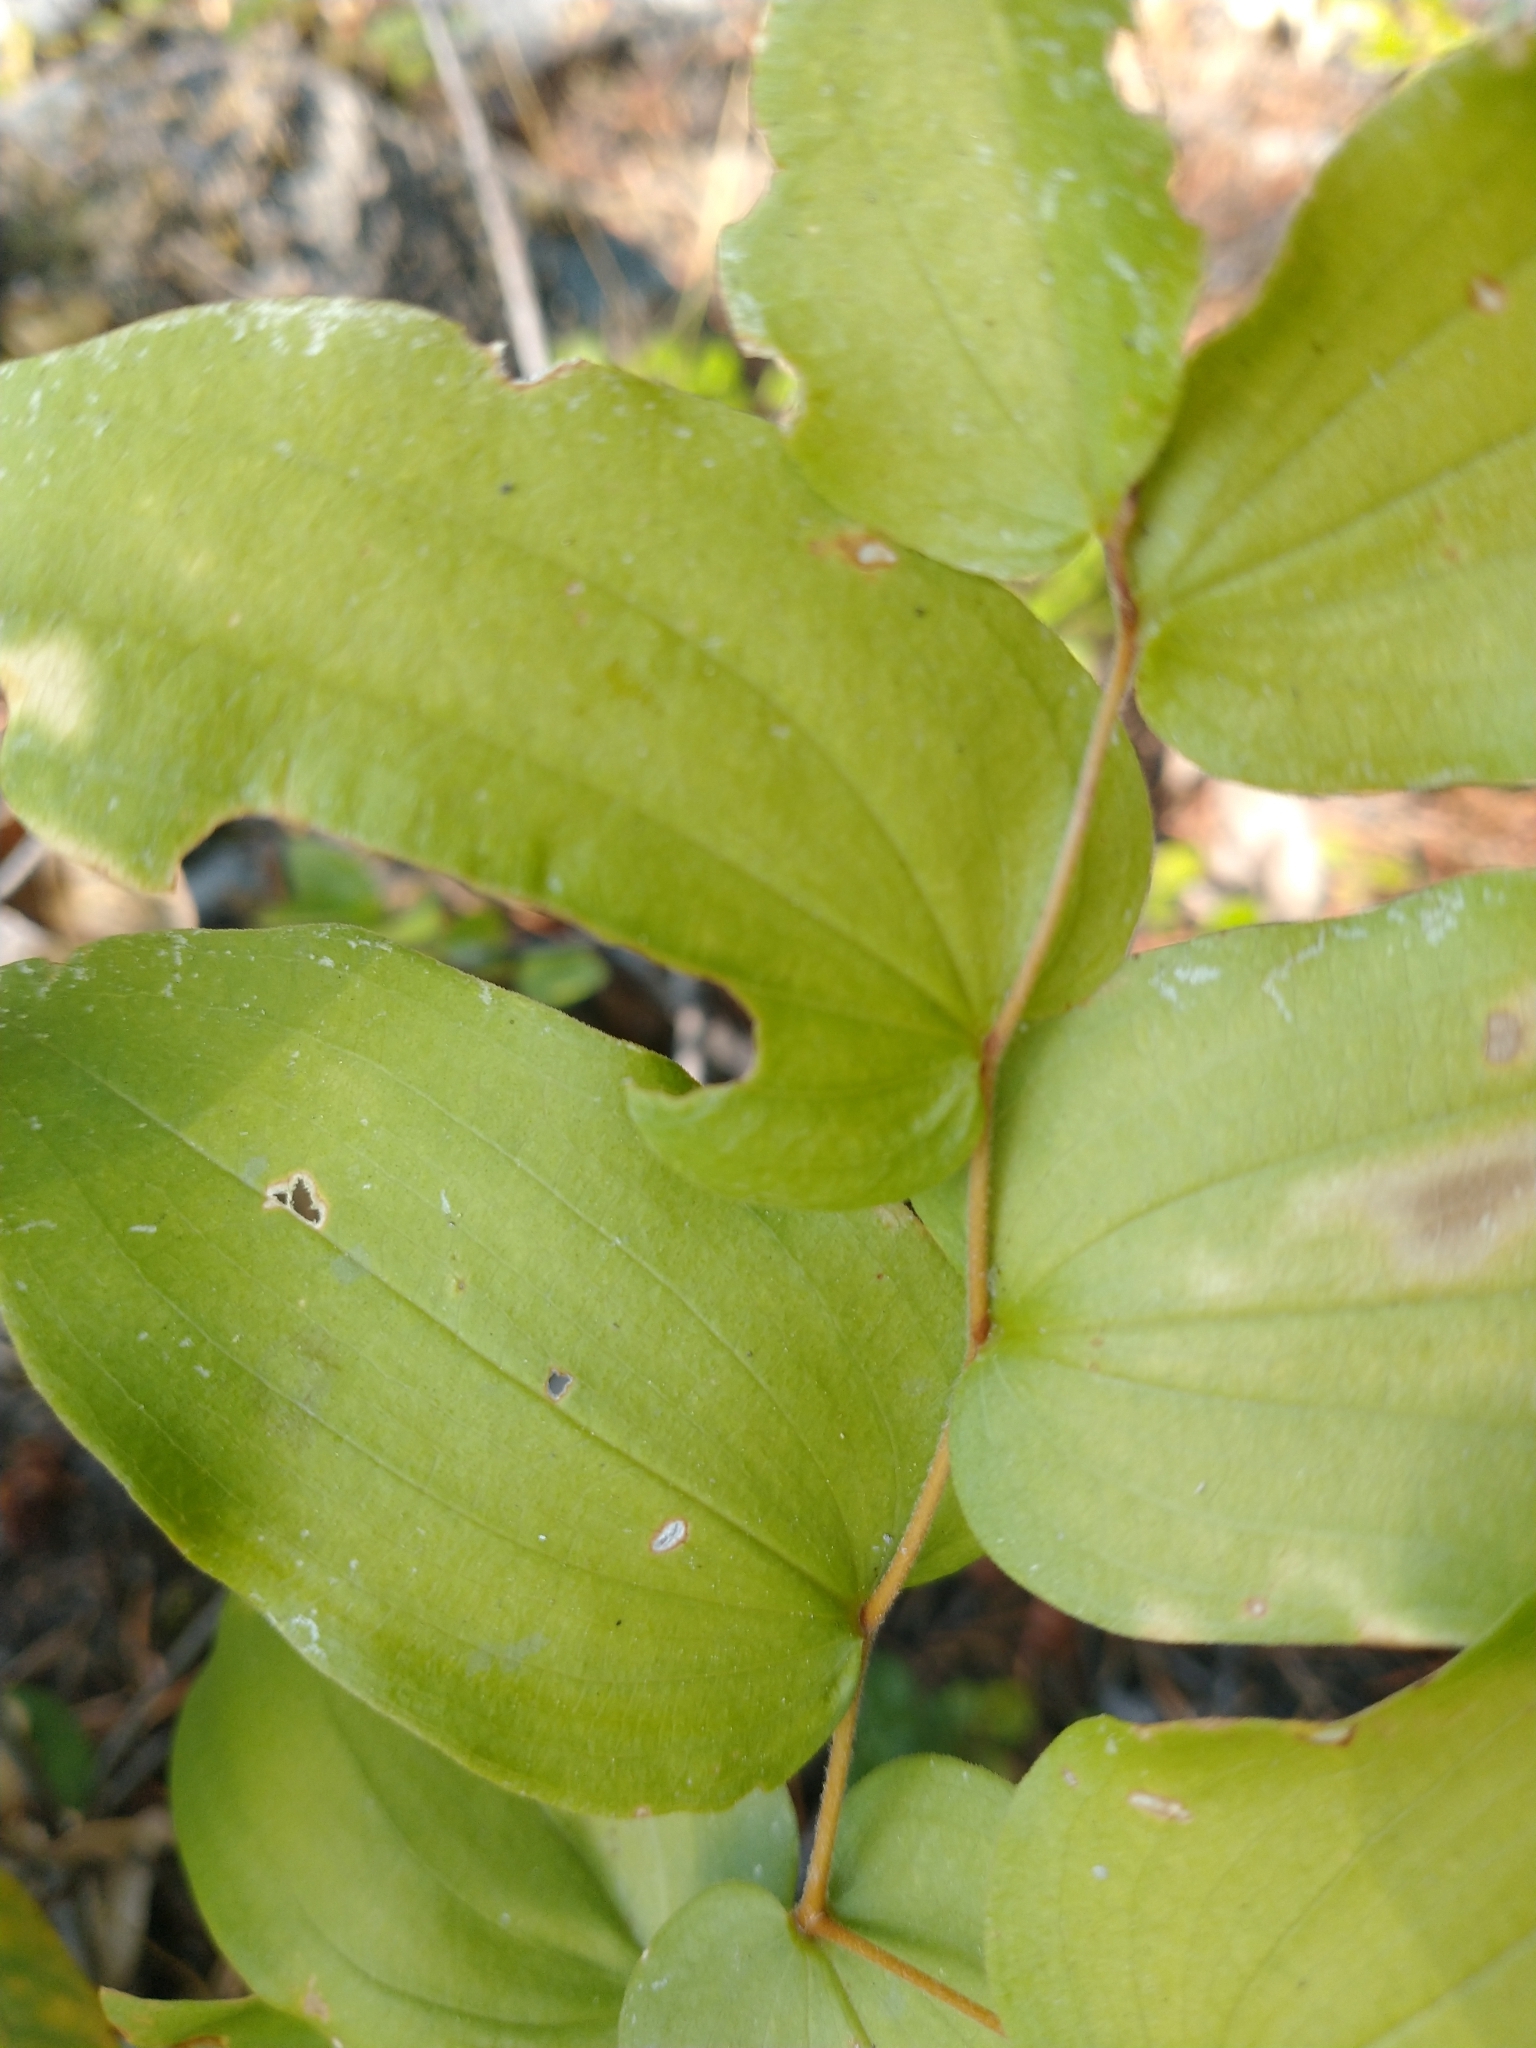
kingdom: Plantae
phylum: Tracheophyta
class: Liliopsida
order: Liliales
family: Liliaceae
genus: Prosartes
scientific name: Prosartes hookeri
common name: Fairy-bells
